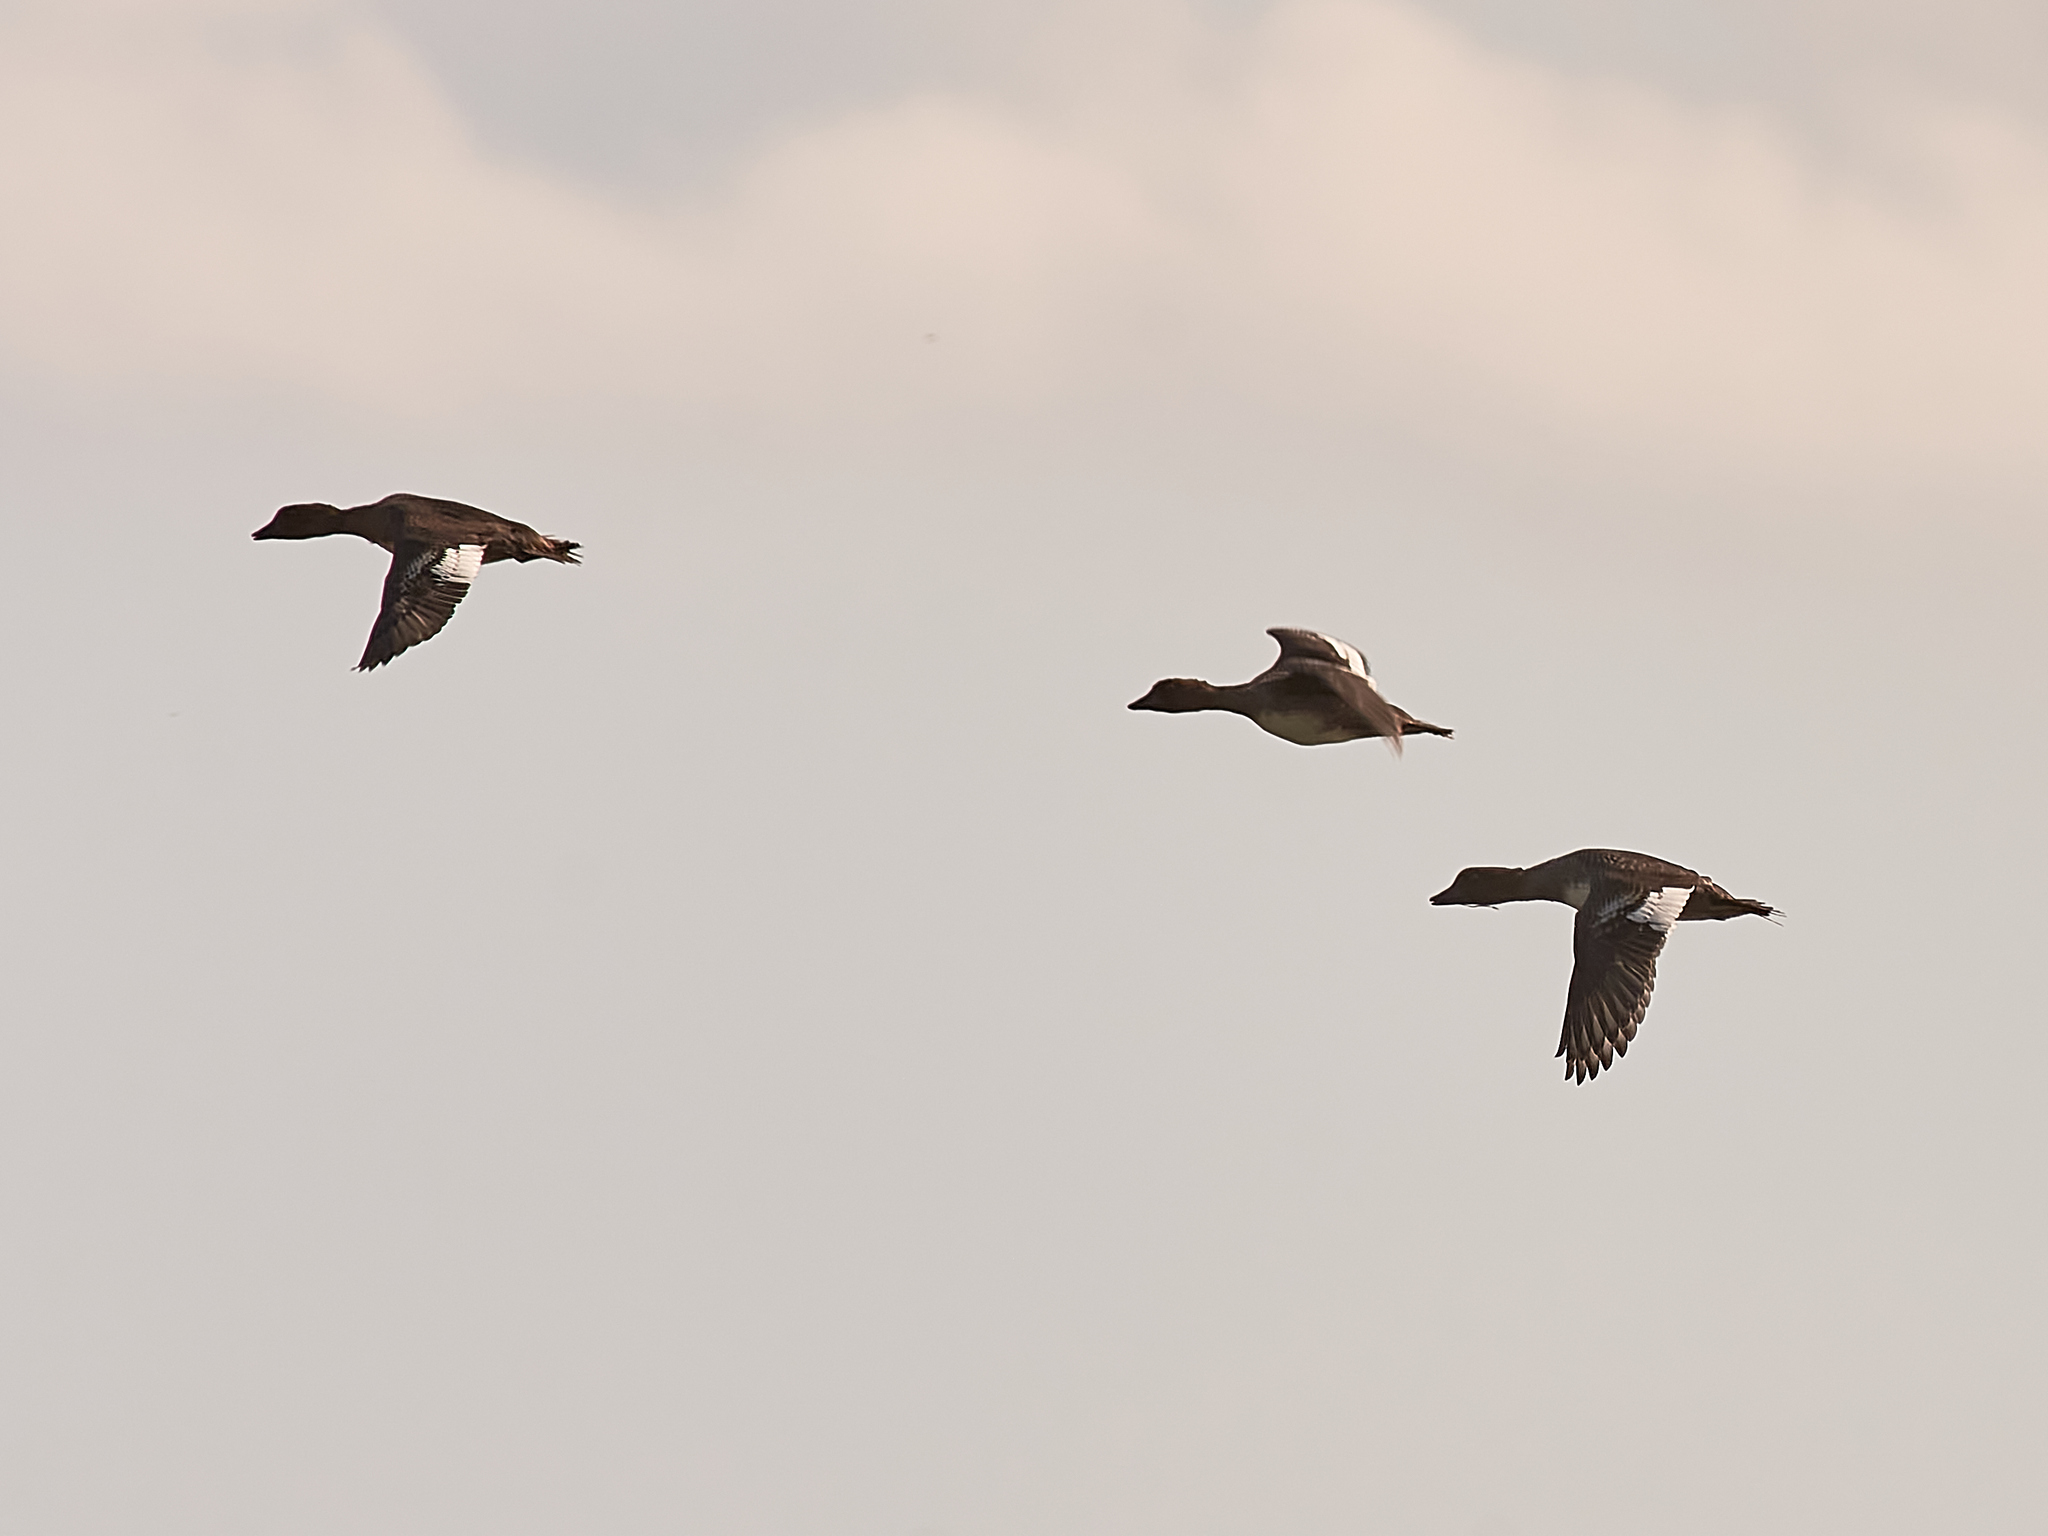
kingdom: Animalia
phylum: Chordata
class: Aves
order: Anseriformes
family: Anatidae
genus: Bucephala
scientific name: Bucephala clangula
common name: Common goldeneye
